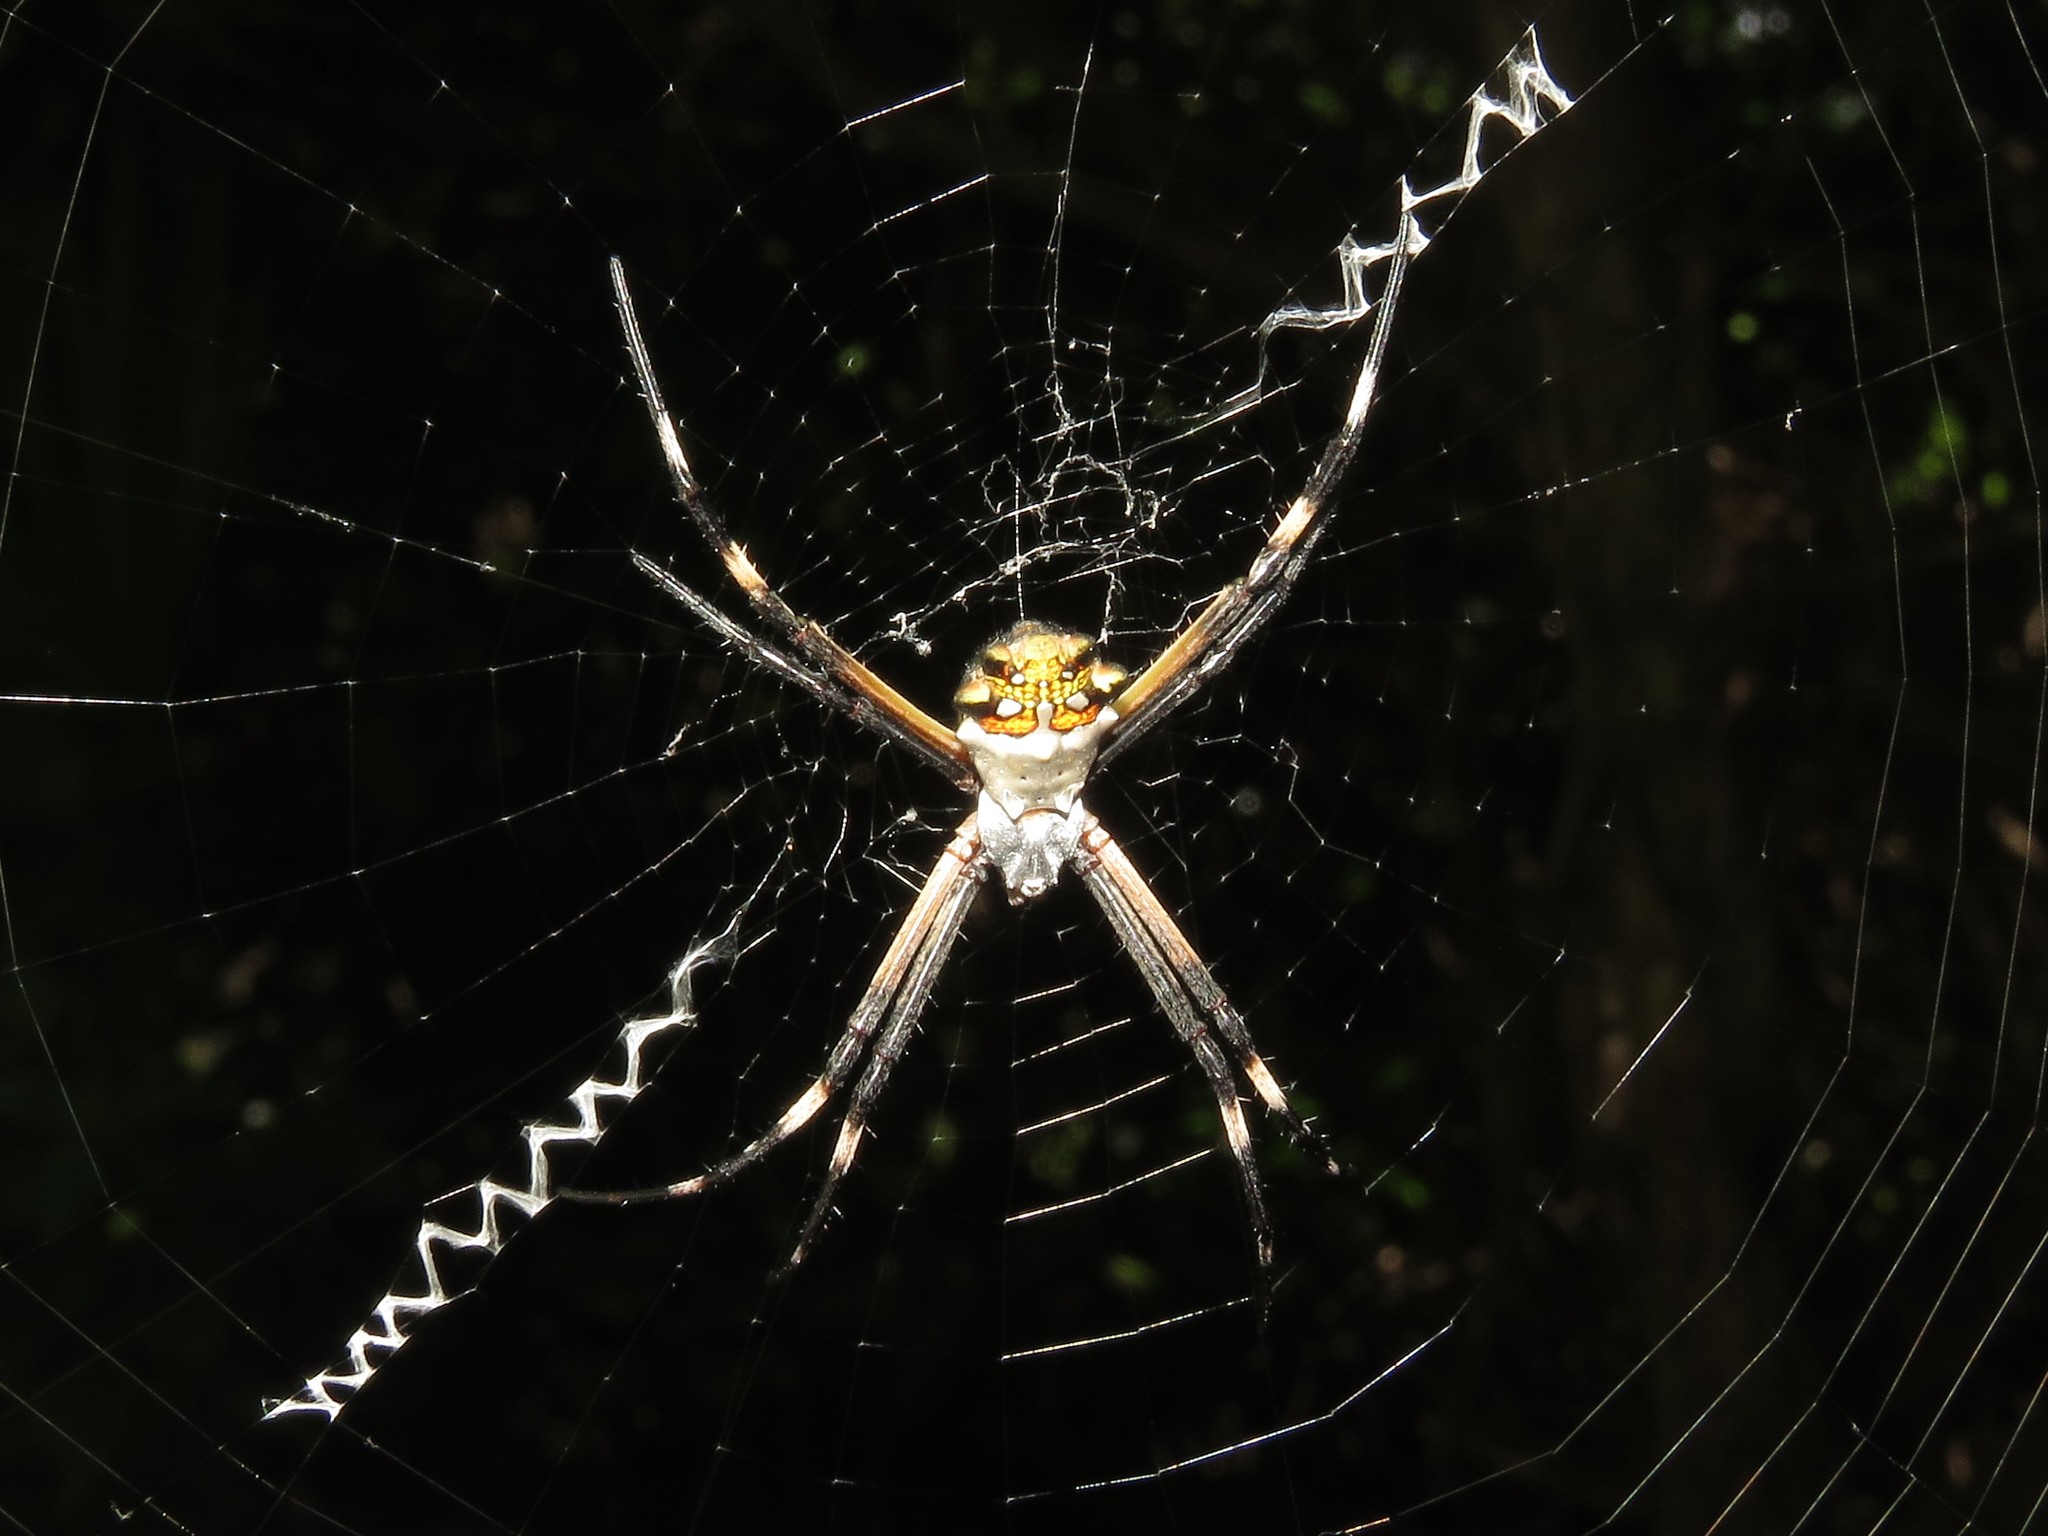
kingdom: Animalia
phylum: Arthropoda
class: Arachnida
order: Araneae
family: Araneidae
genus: Argiope
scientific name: Argiope argentata
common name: Orb weavers
